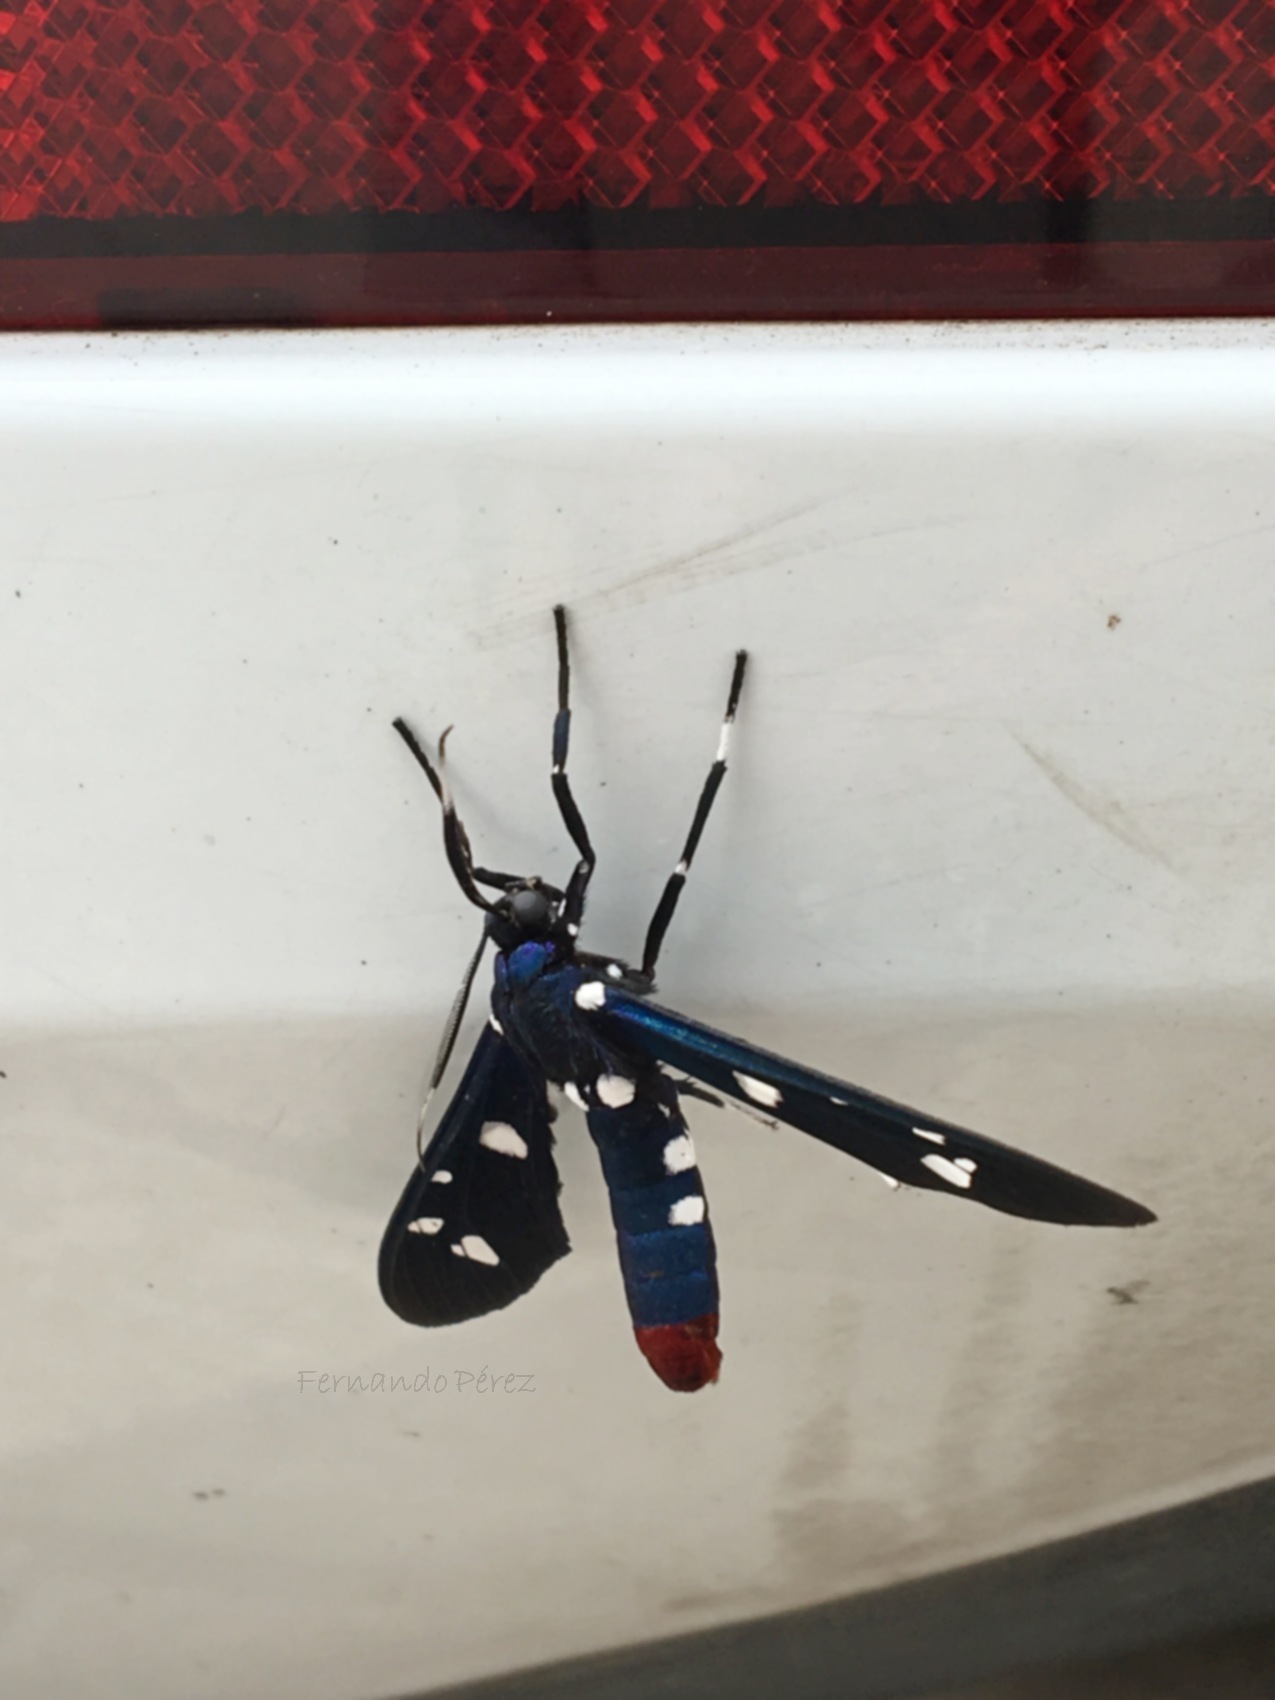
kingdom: Animalia
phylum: Arthropoda
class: Insecta
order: Lepidoptera
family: Erebidae
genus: Syntomeida
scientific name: Syntomeida epilais
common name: Polka-dot wasp moth
